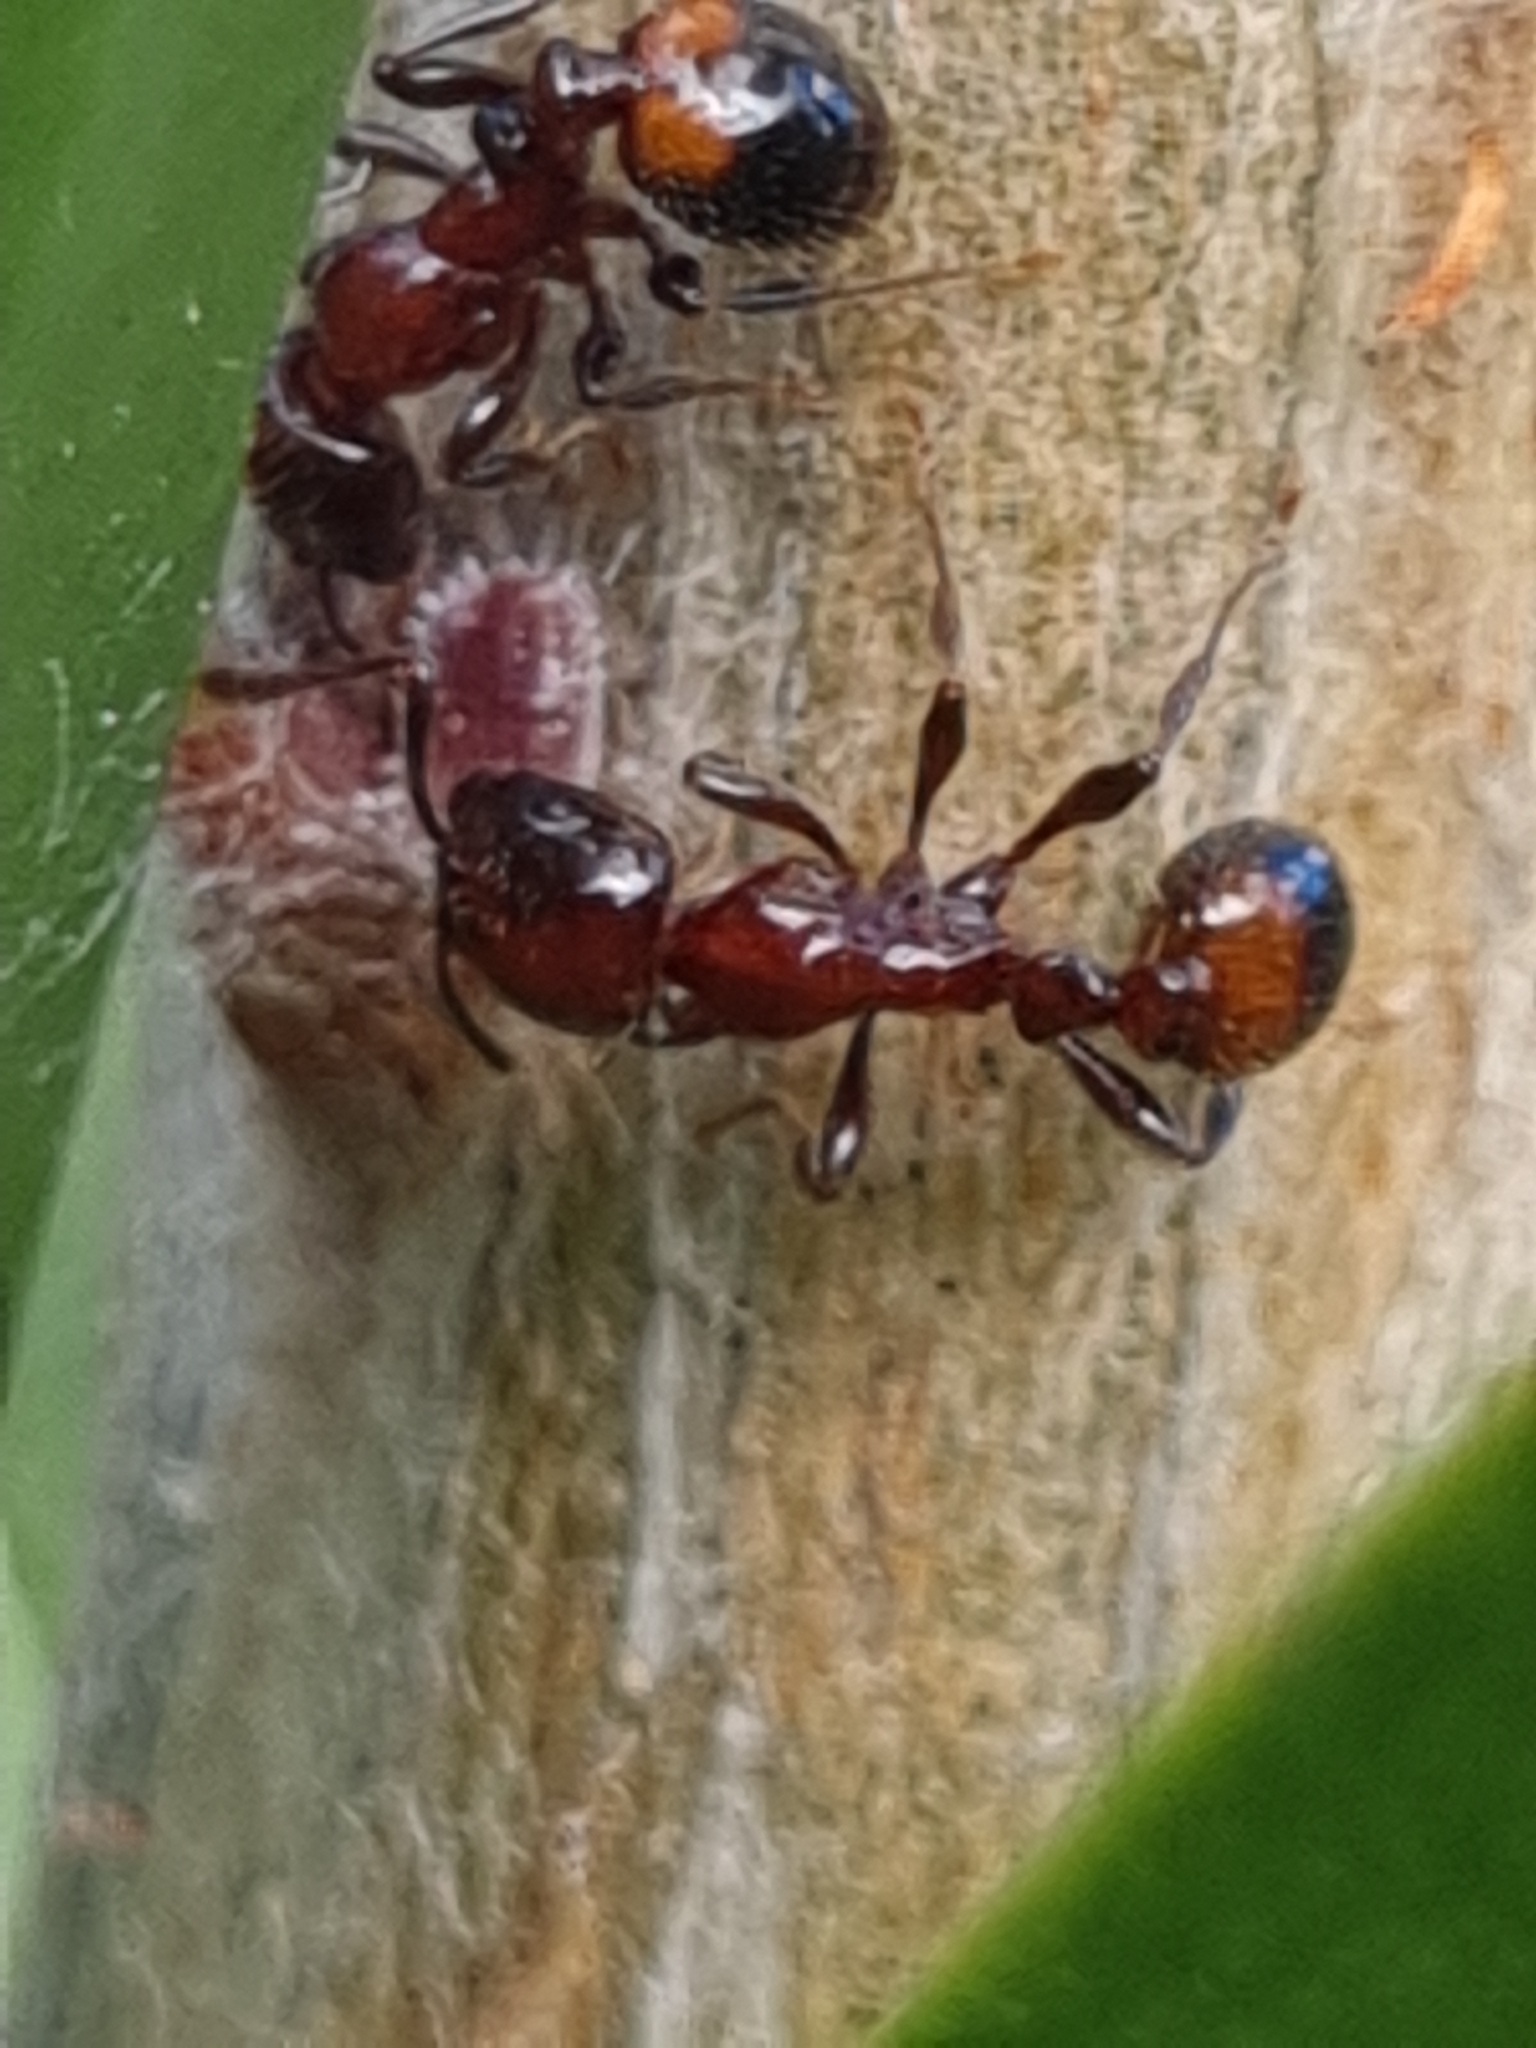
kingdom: Animalia
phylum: Arthropoda
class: Insecta
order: Hymenoptera
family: Formicidae
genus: Chelaner
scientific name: Chelaner
